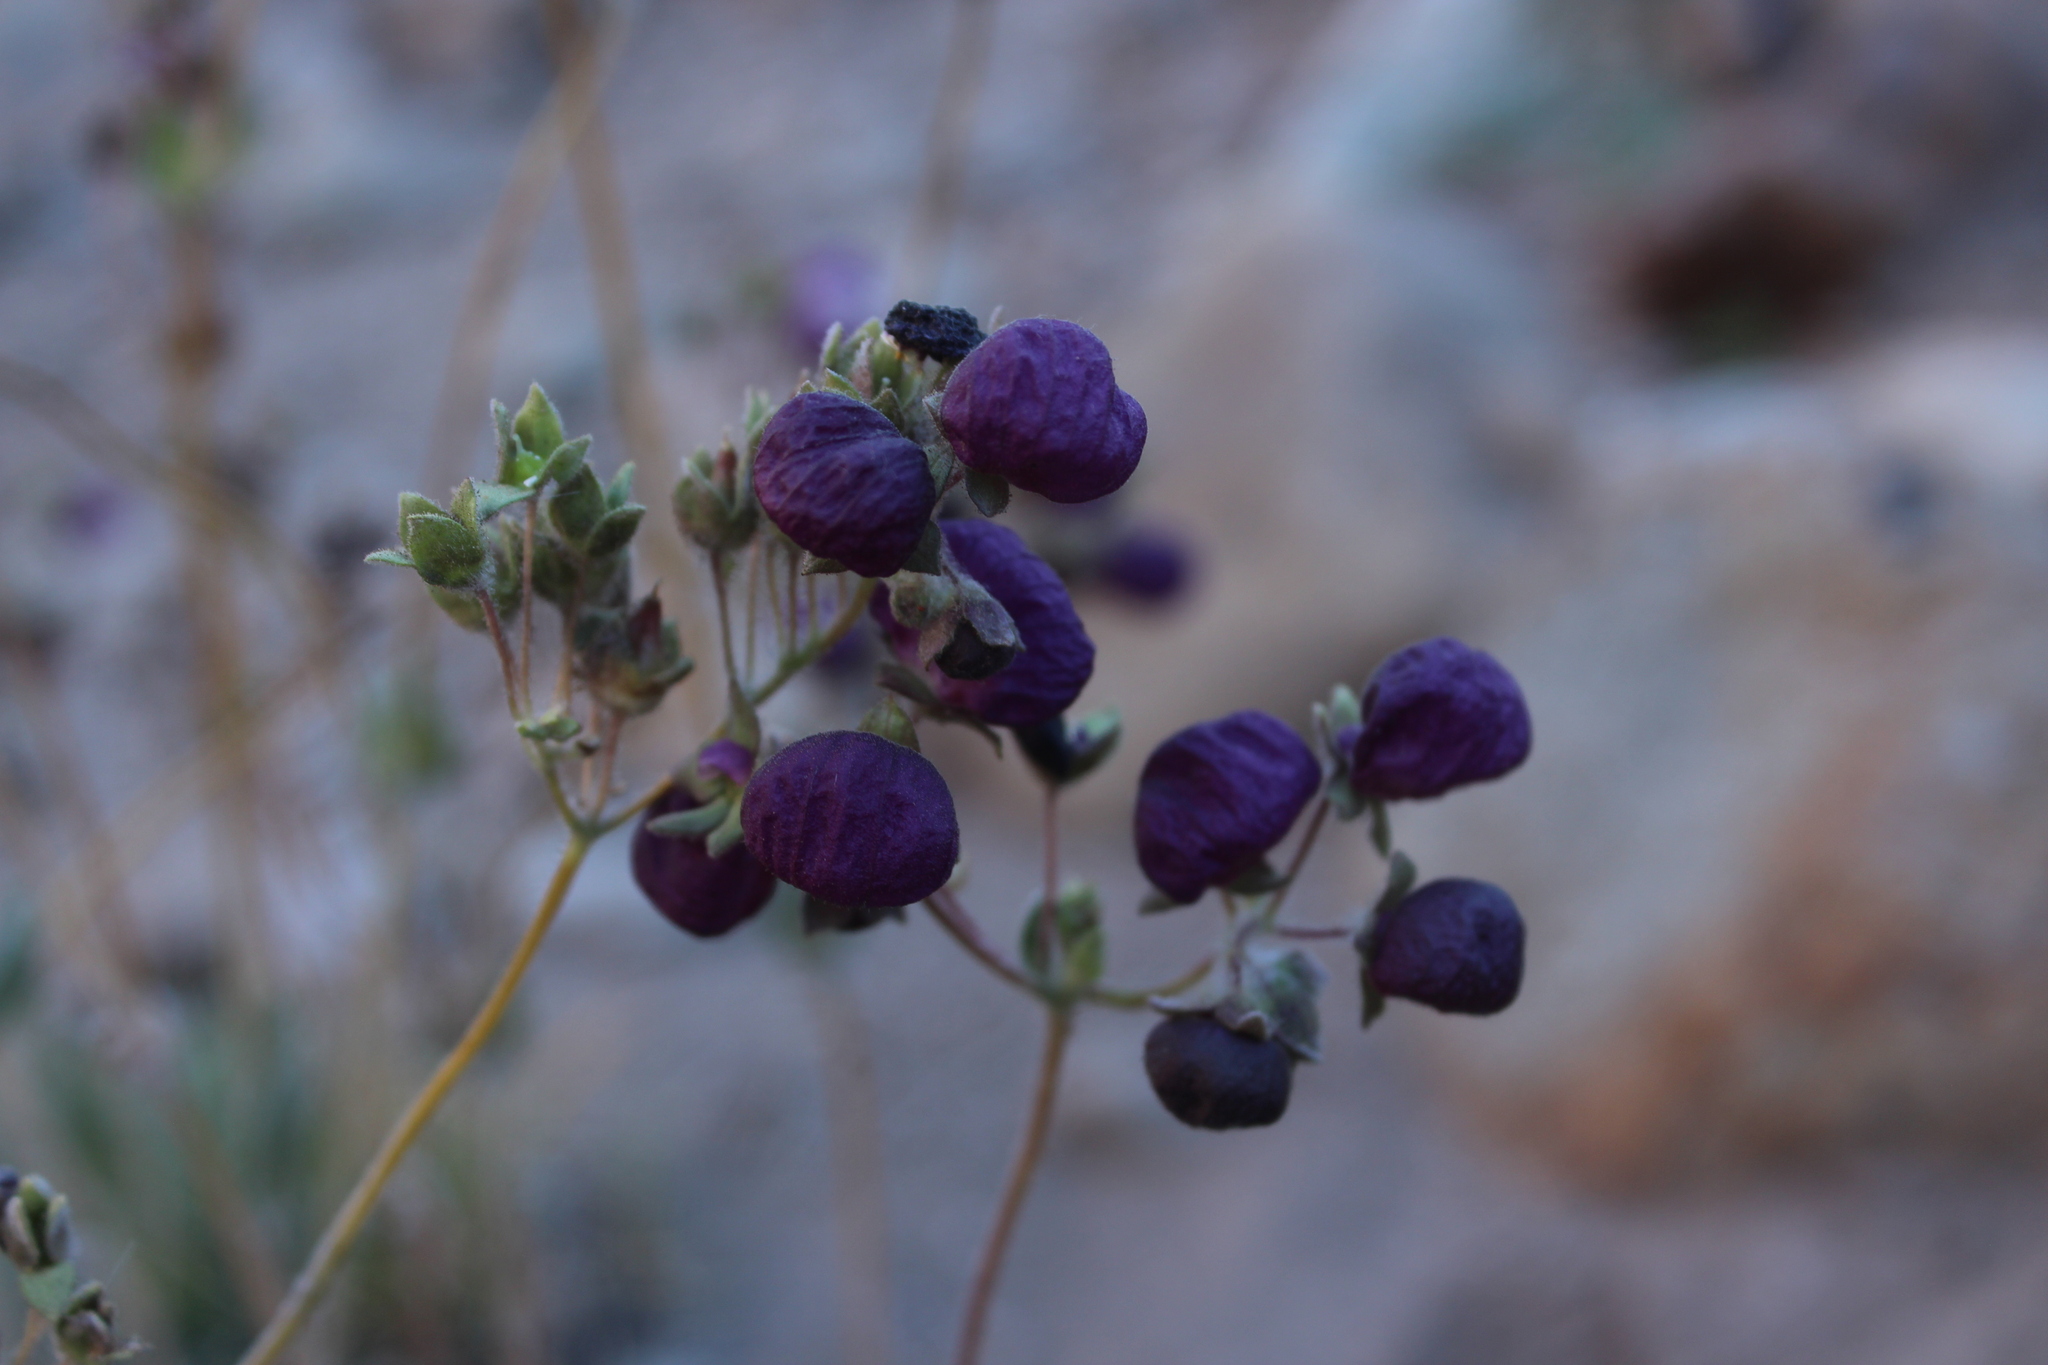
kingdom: Plantae
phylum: Tracheophyta
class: Magnoliopsida
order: Lamiales
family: Calceolariaceae
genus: Calceolaria
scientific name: Calceolaria arachnoidea
